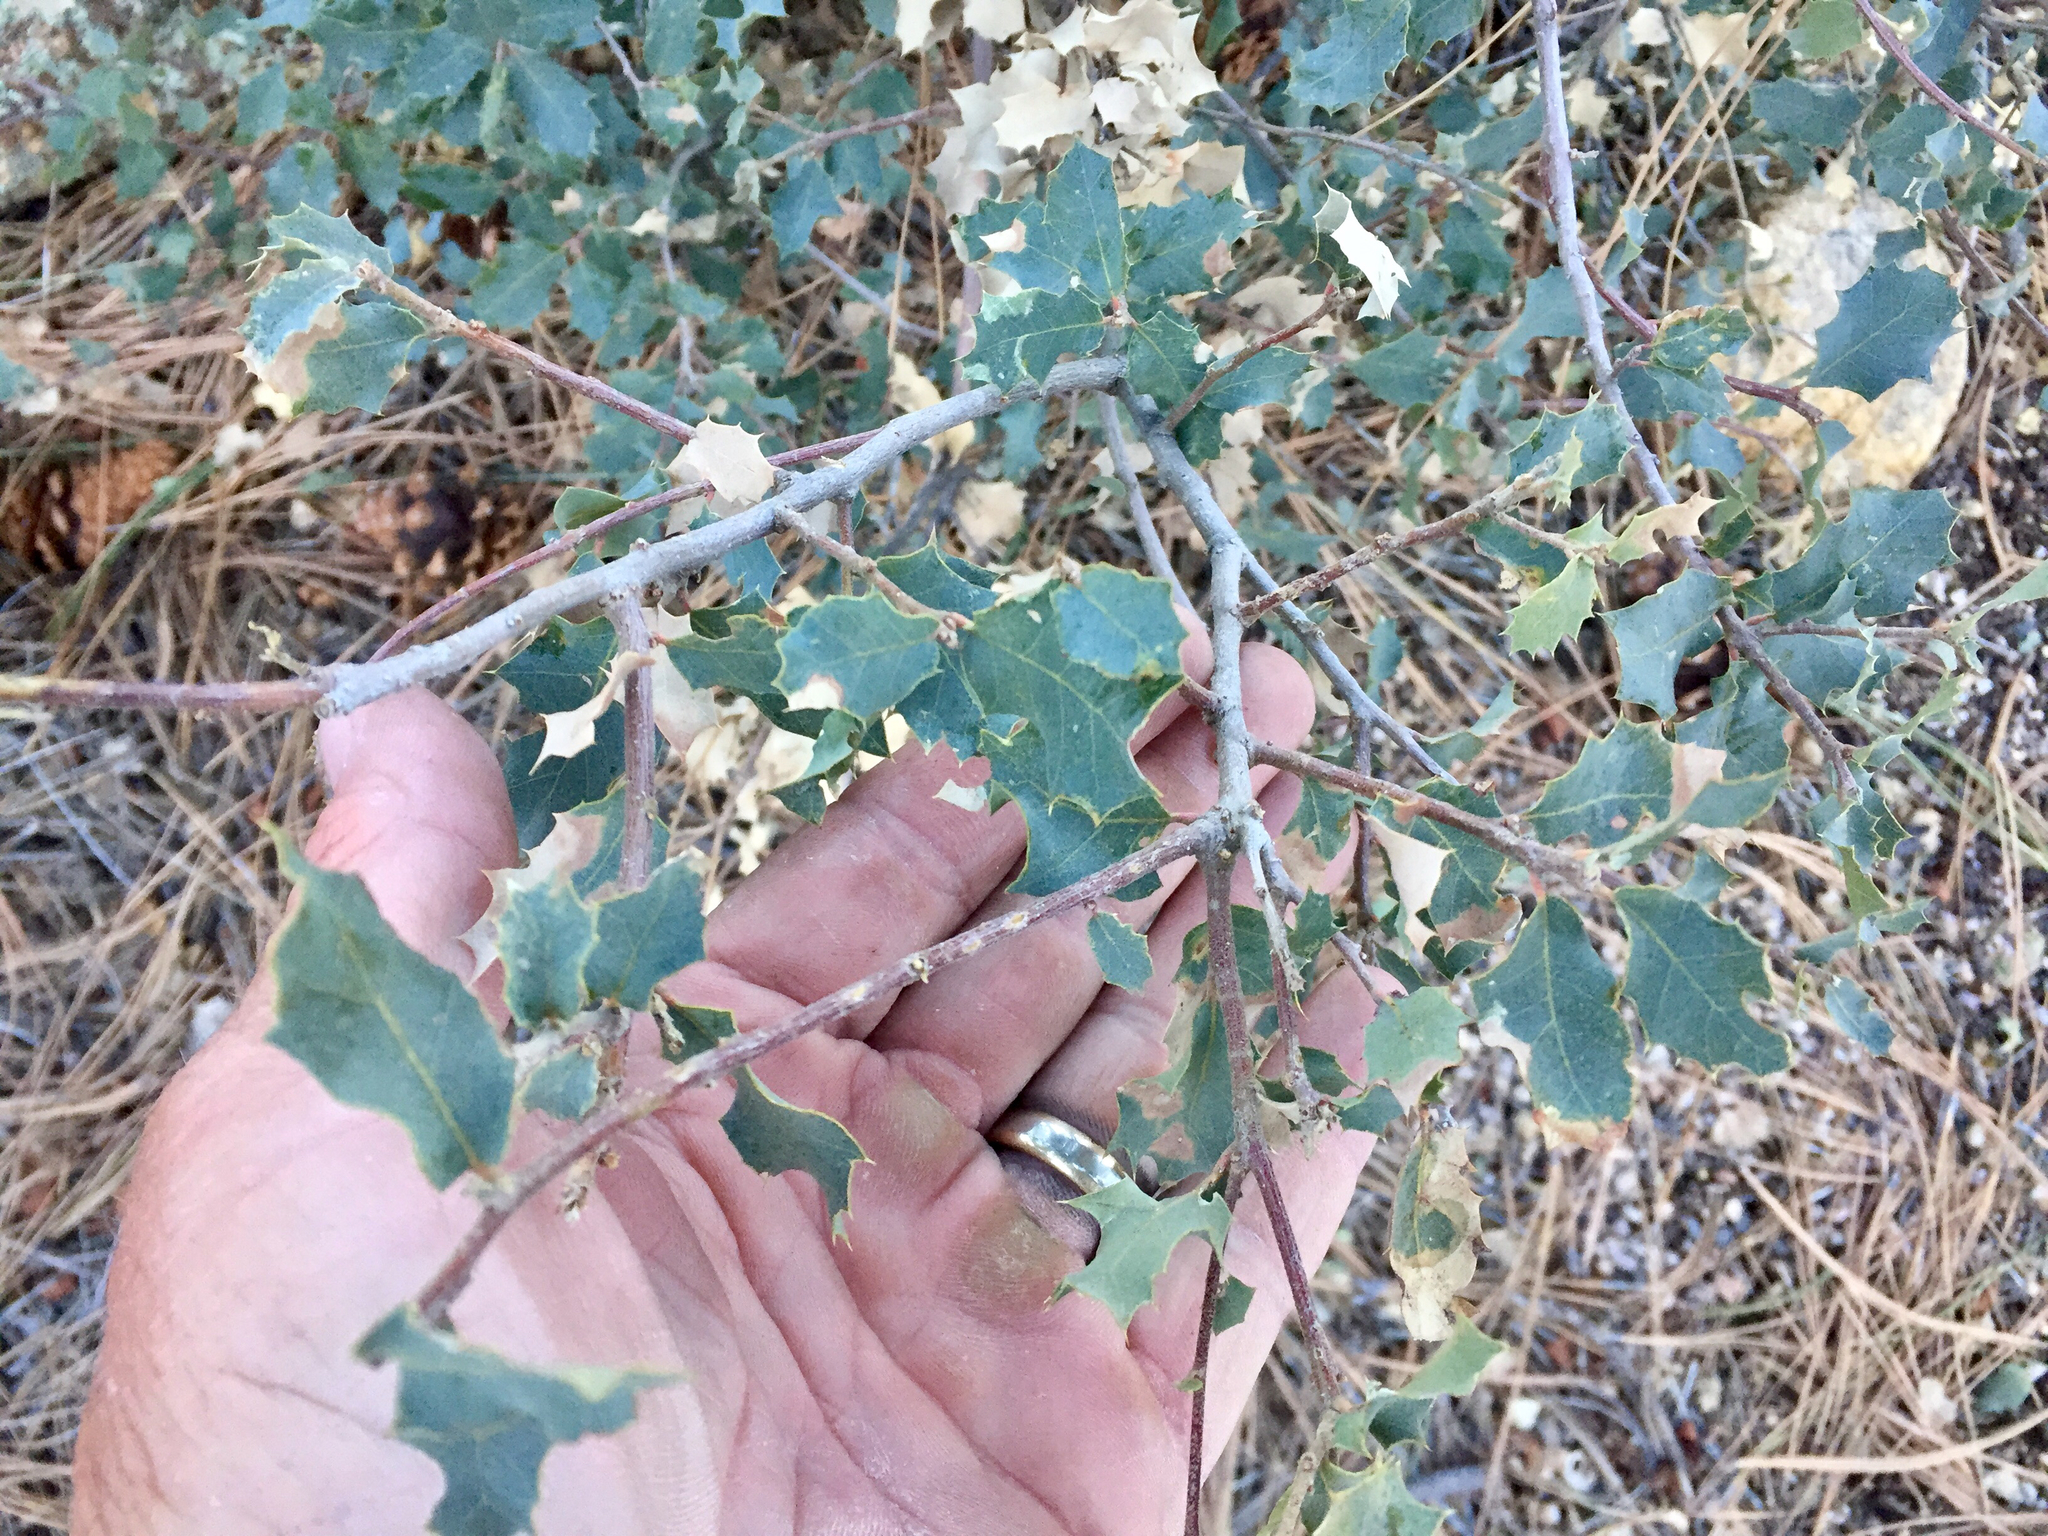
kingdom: Plantae
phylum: Tracheophyta
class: Magnoliopsida
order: Fagales
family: Fagaceae
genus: Quercus
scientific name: Quercus turbinella
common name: Sonoran scrub oak
